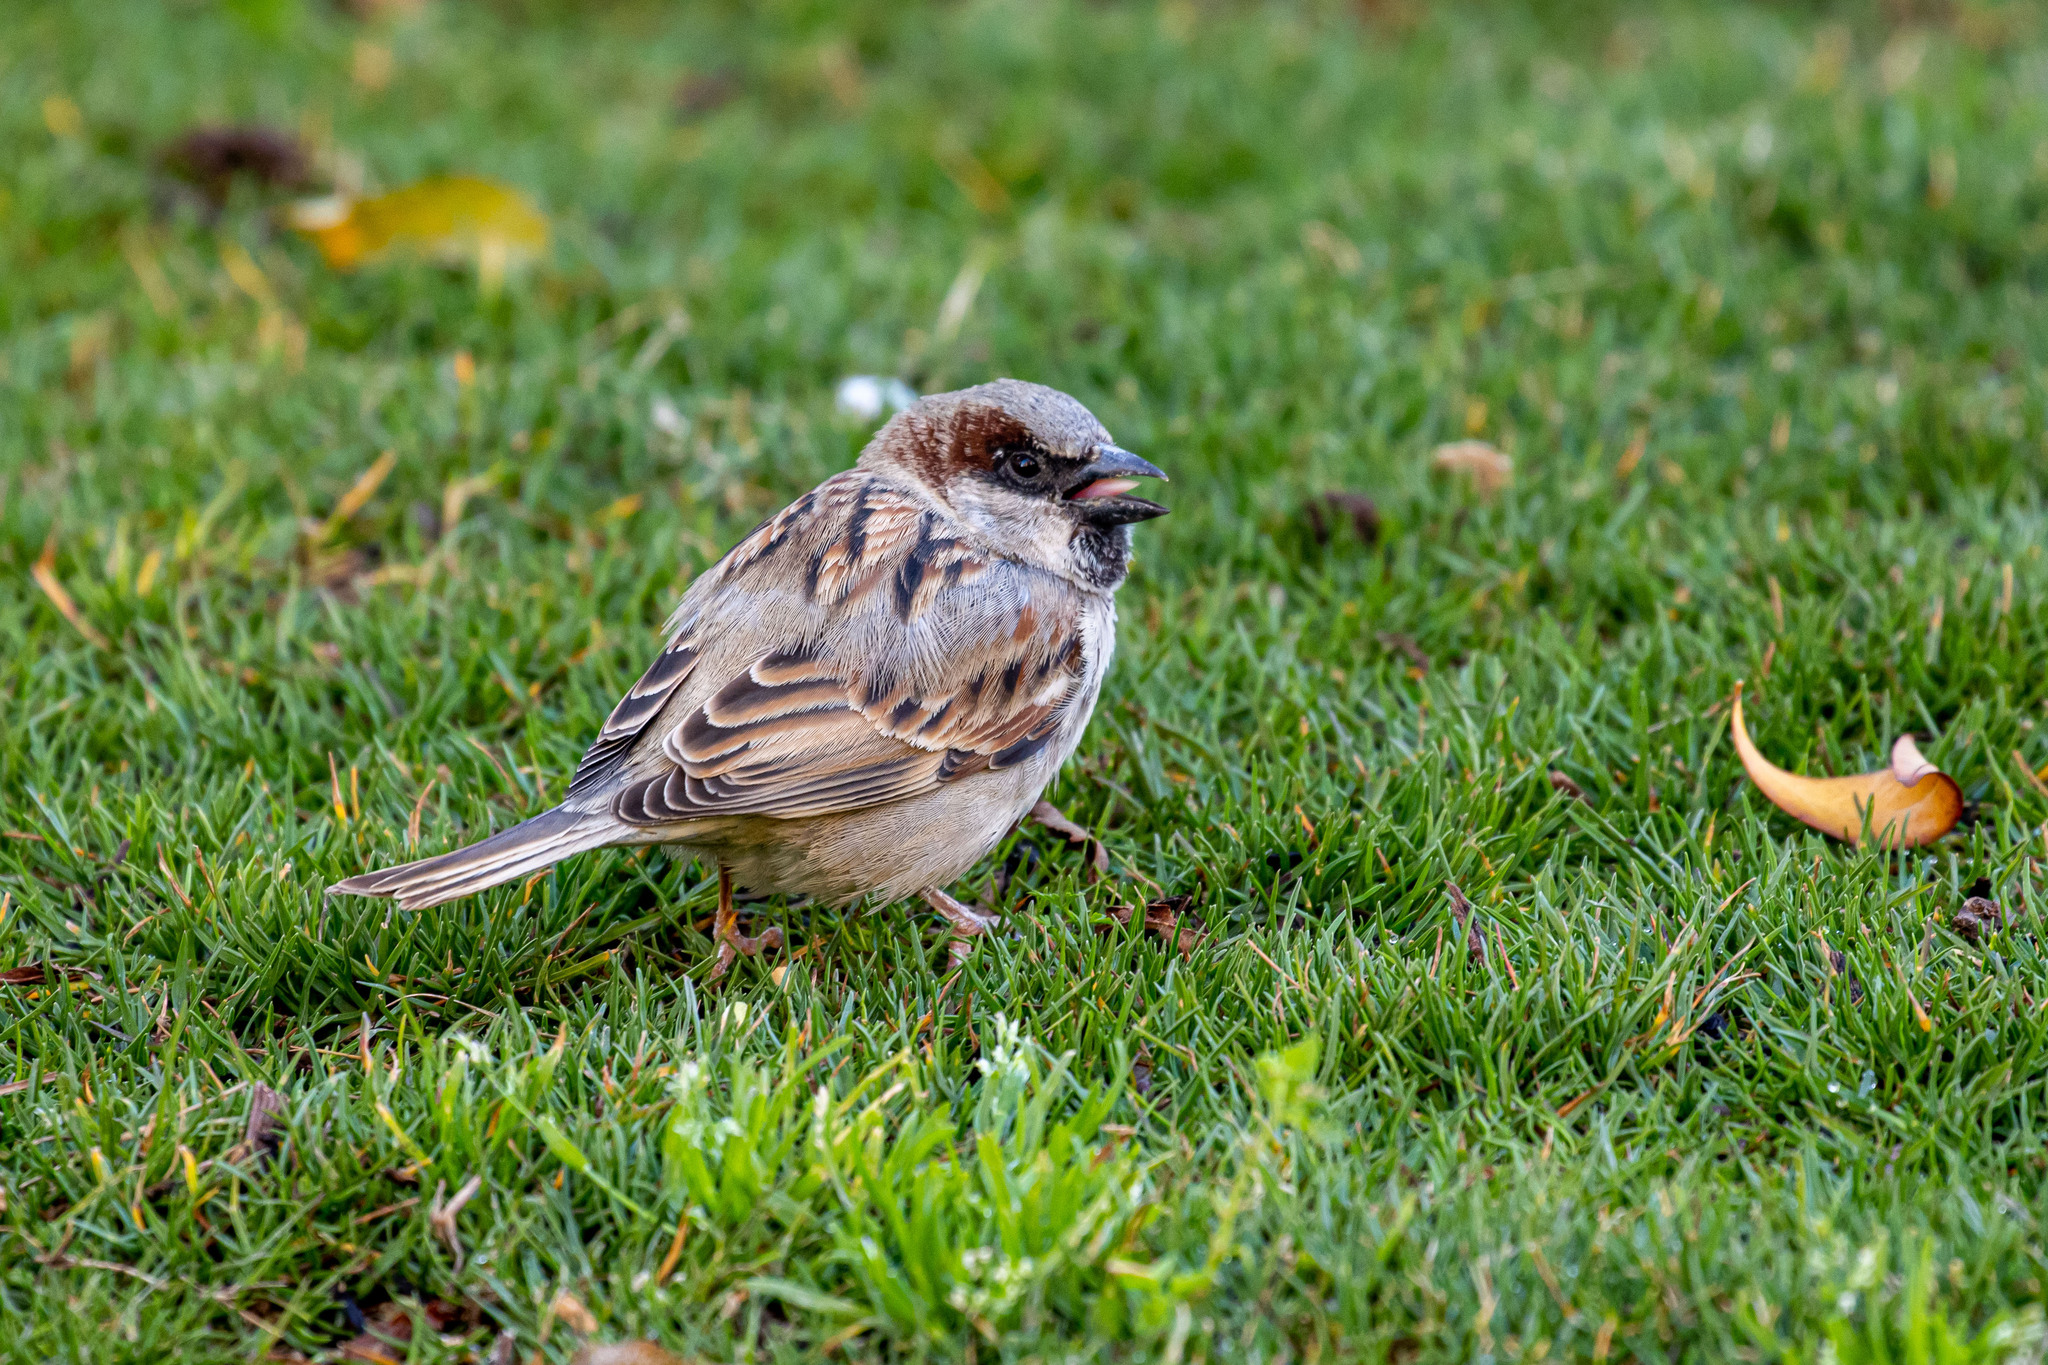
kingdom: Animalia
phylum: Chordata
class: Aves
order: Passeriformes
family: Passeridae
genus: Passer
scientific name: Passer domesticus
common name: House sparrow
